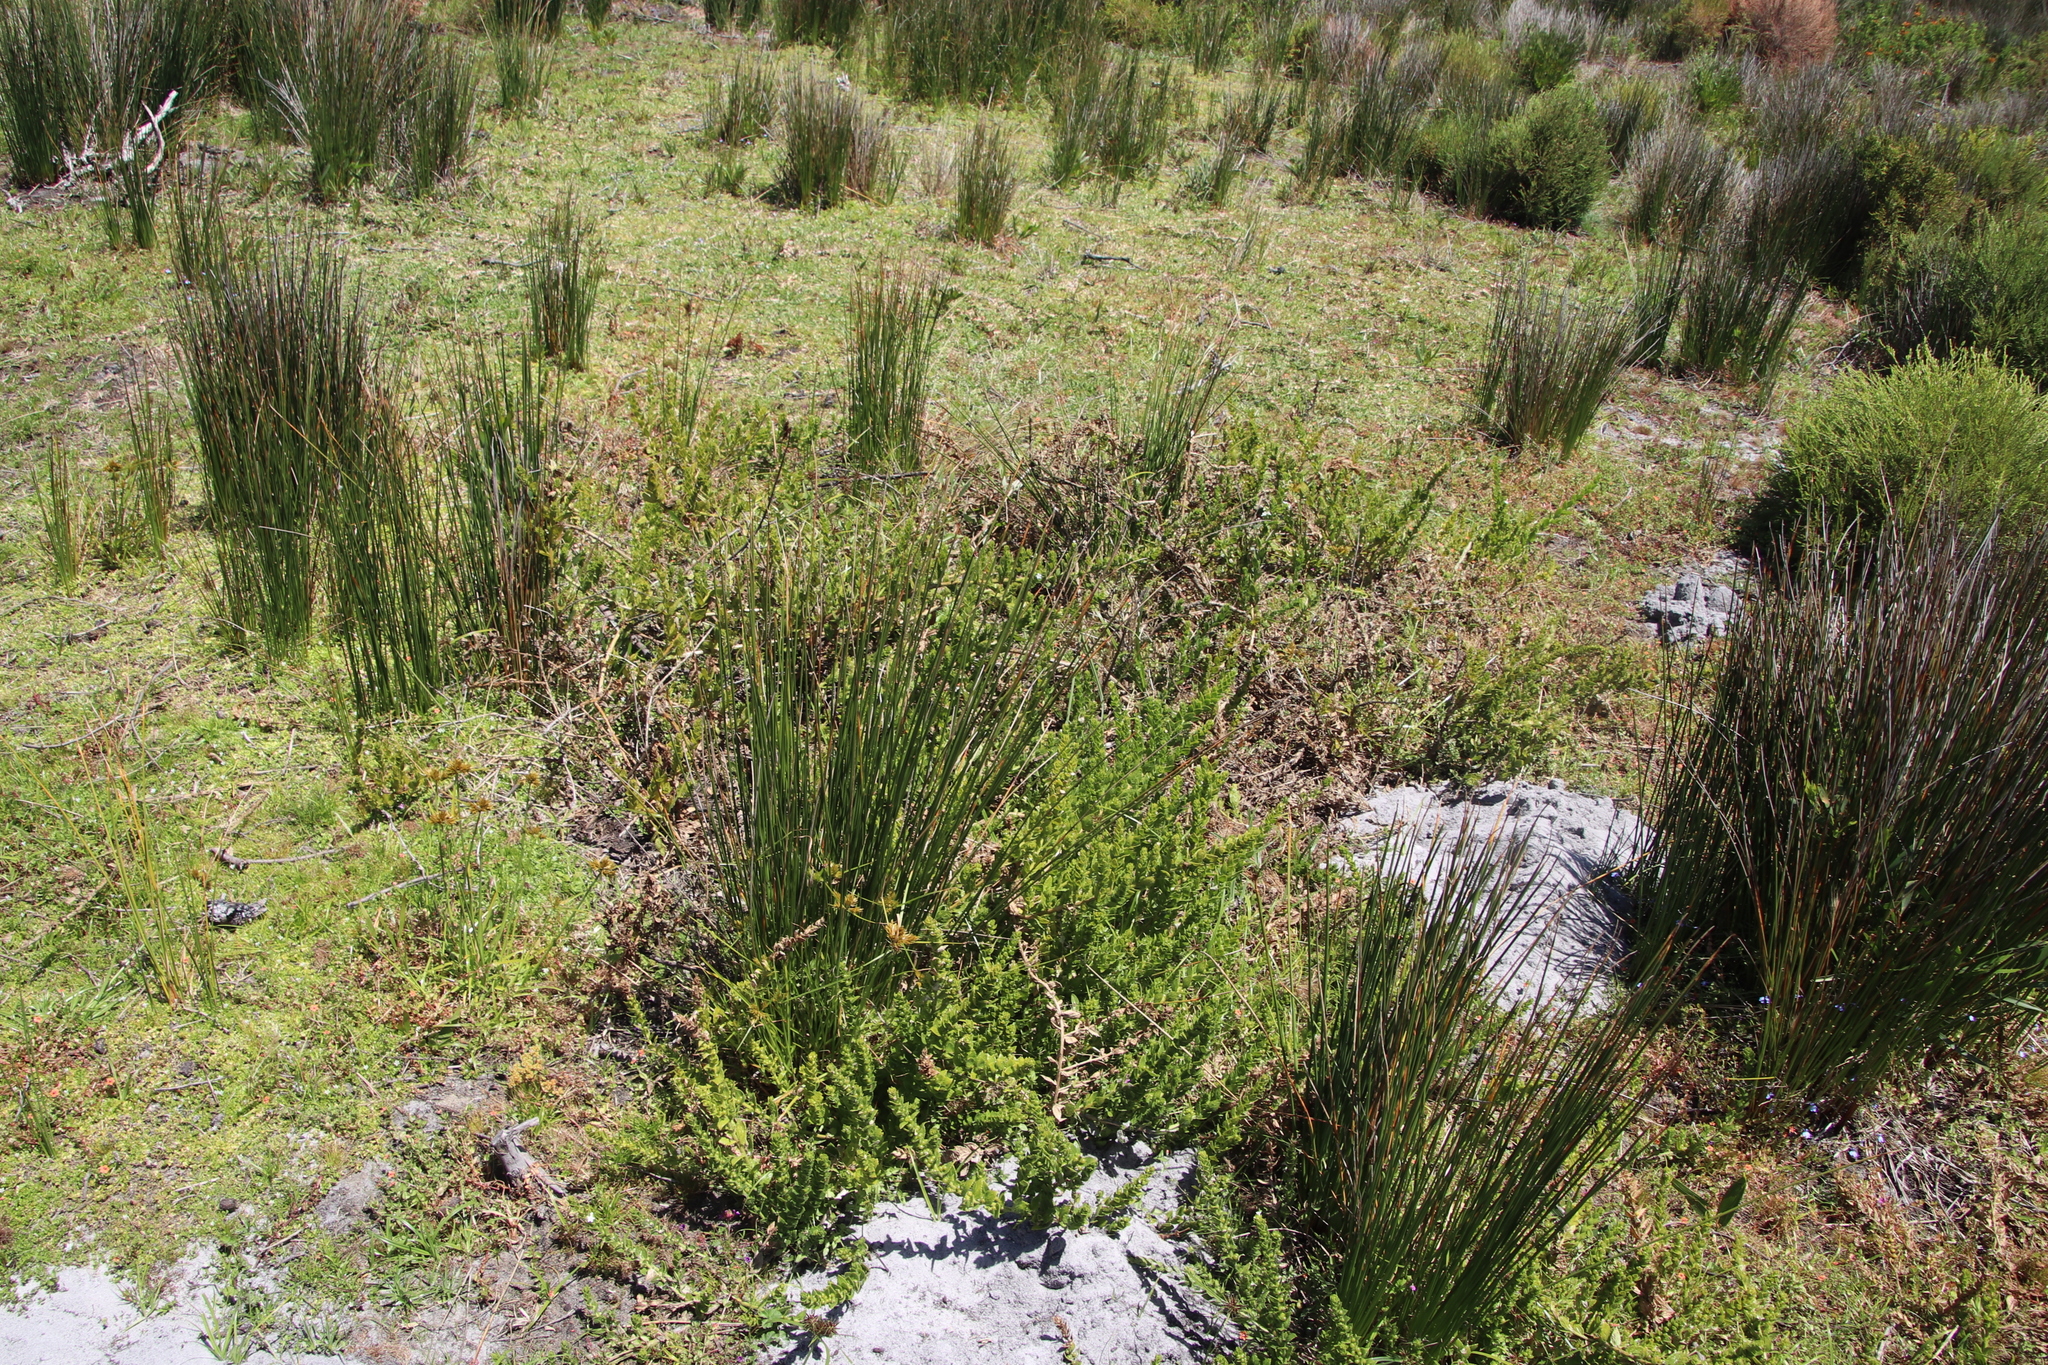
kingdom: Plantae
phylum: Tracheophyta
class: Magnoliopsida
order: Lamiales
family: Scrophulariaceae
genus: Oftia
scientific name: Oftia africana
